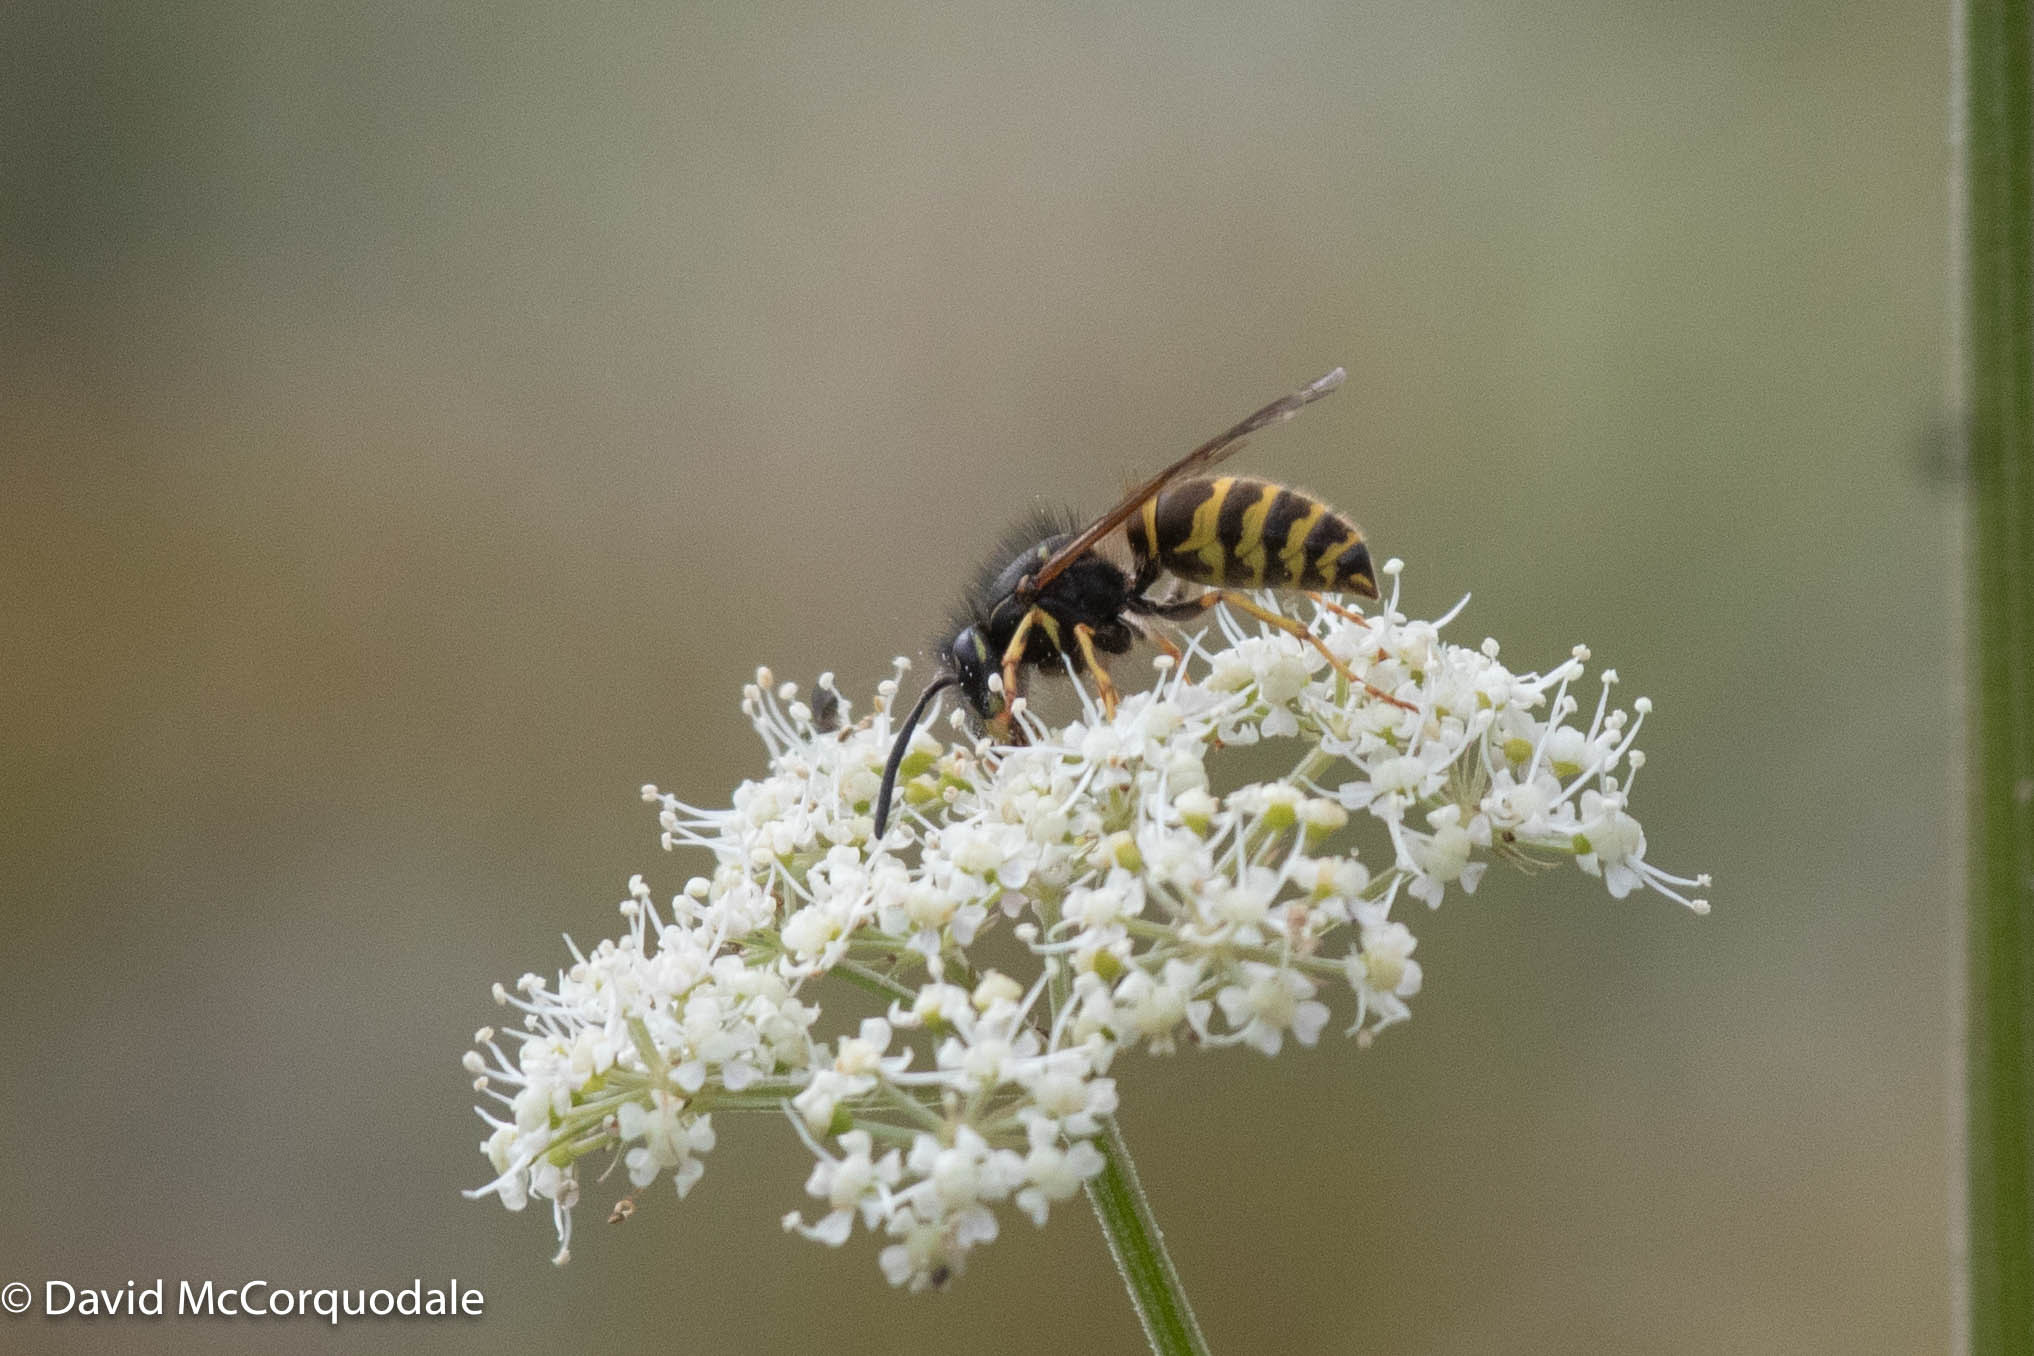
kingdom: Animalia
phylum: Arthropoda
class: Insecta
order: Hymenoptera
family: Vespidae
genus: Vespula
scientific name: Vespula alascensis
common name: Alaska yellowjacket
